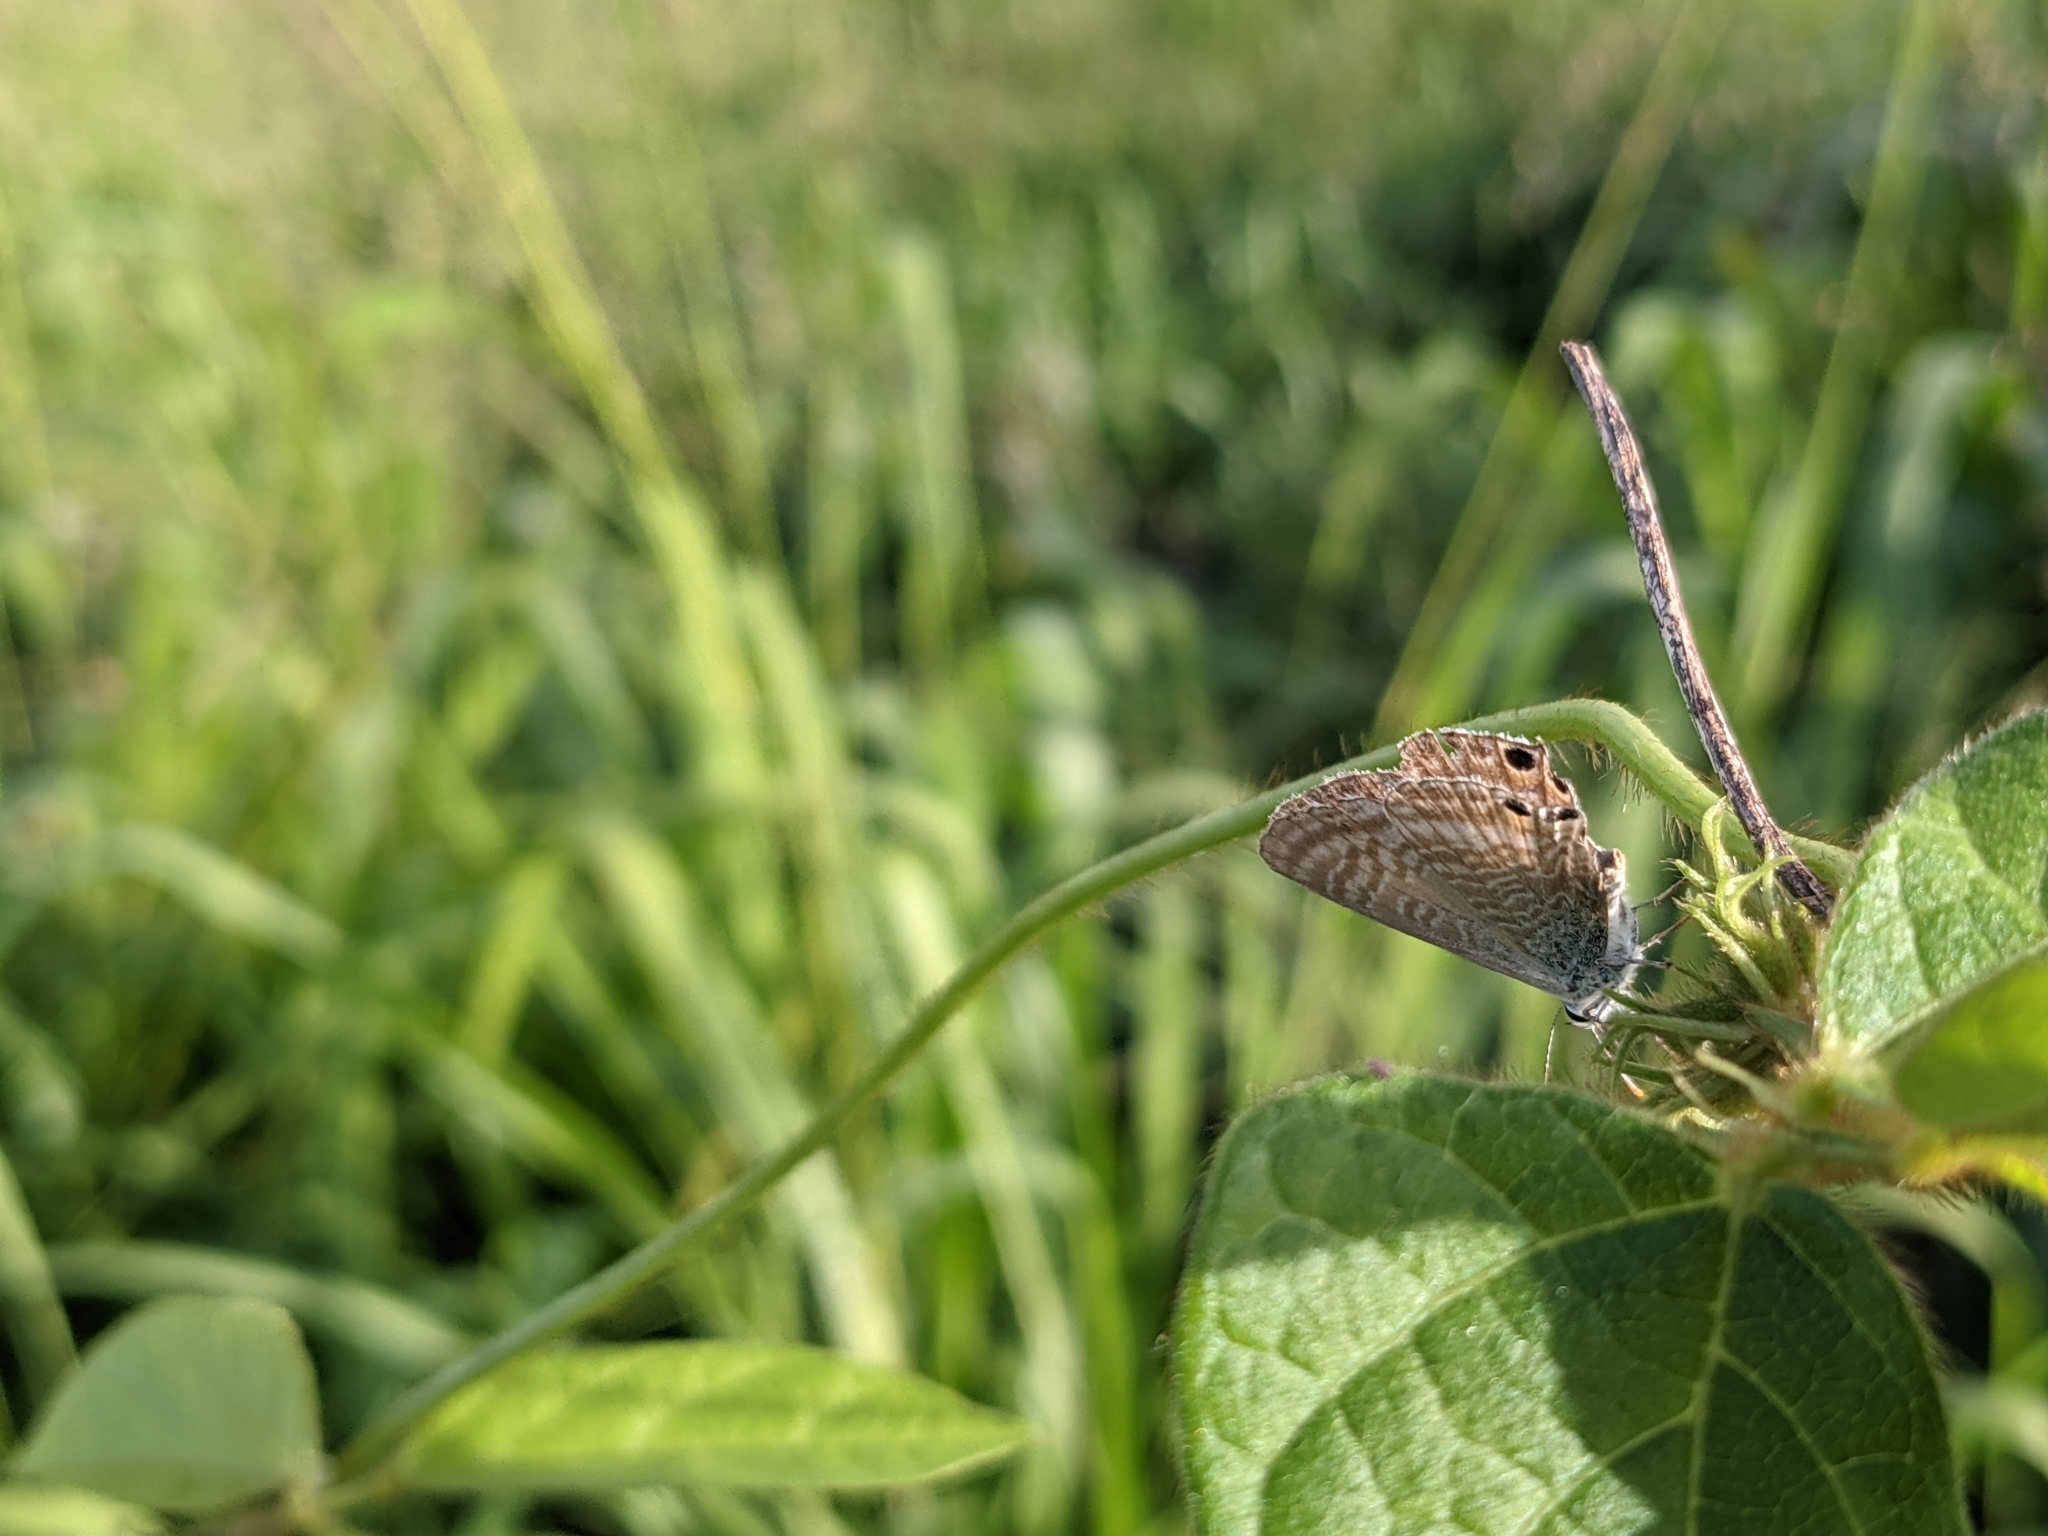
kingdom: Animalia
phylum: Arthropoda
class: Insecta
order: Lepidoptera
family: Lycaenidae
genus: Lampides
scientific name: Lampides boeticus
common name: Long-tailed blue
